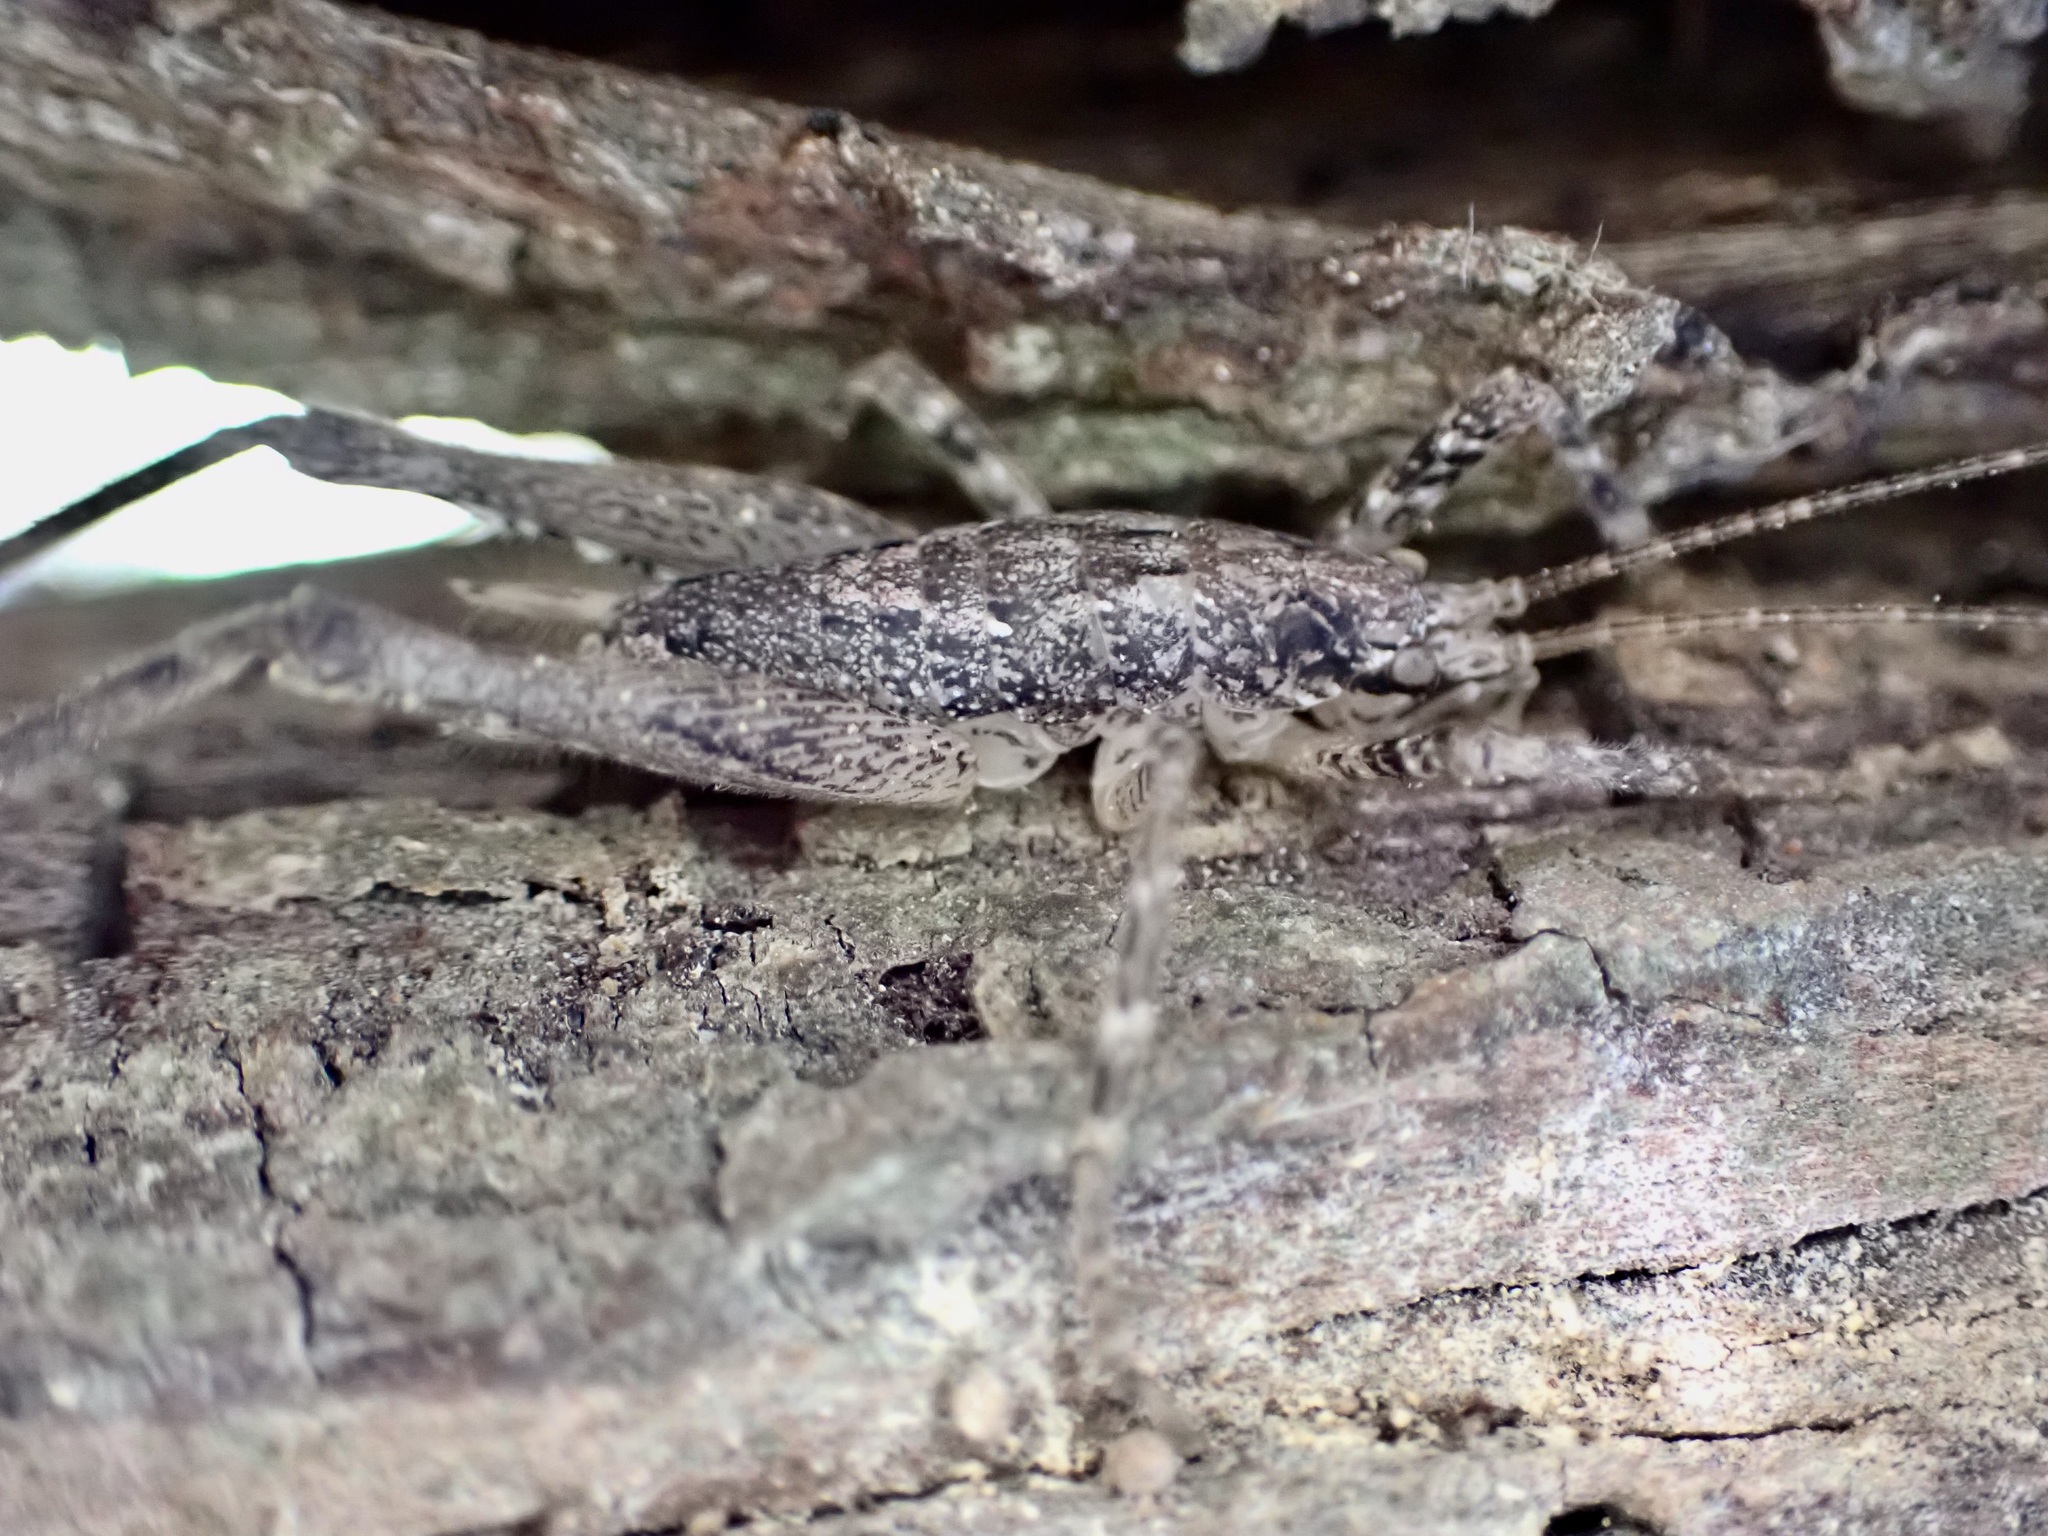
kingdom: Animalia
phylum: Arthropoda
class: Insecta
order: Orthoptera
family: Rhaphidophoridae
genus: Isoplectron
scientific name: Isoplectron armatum
